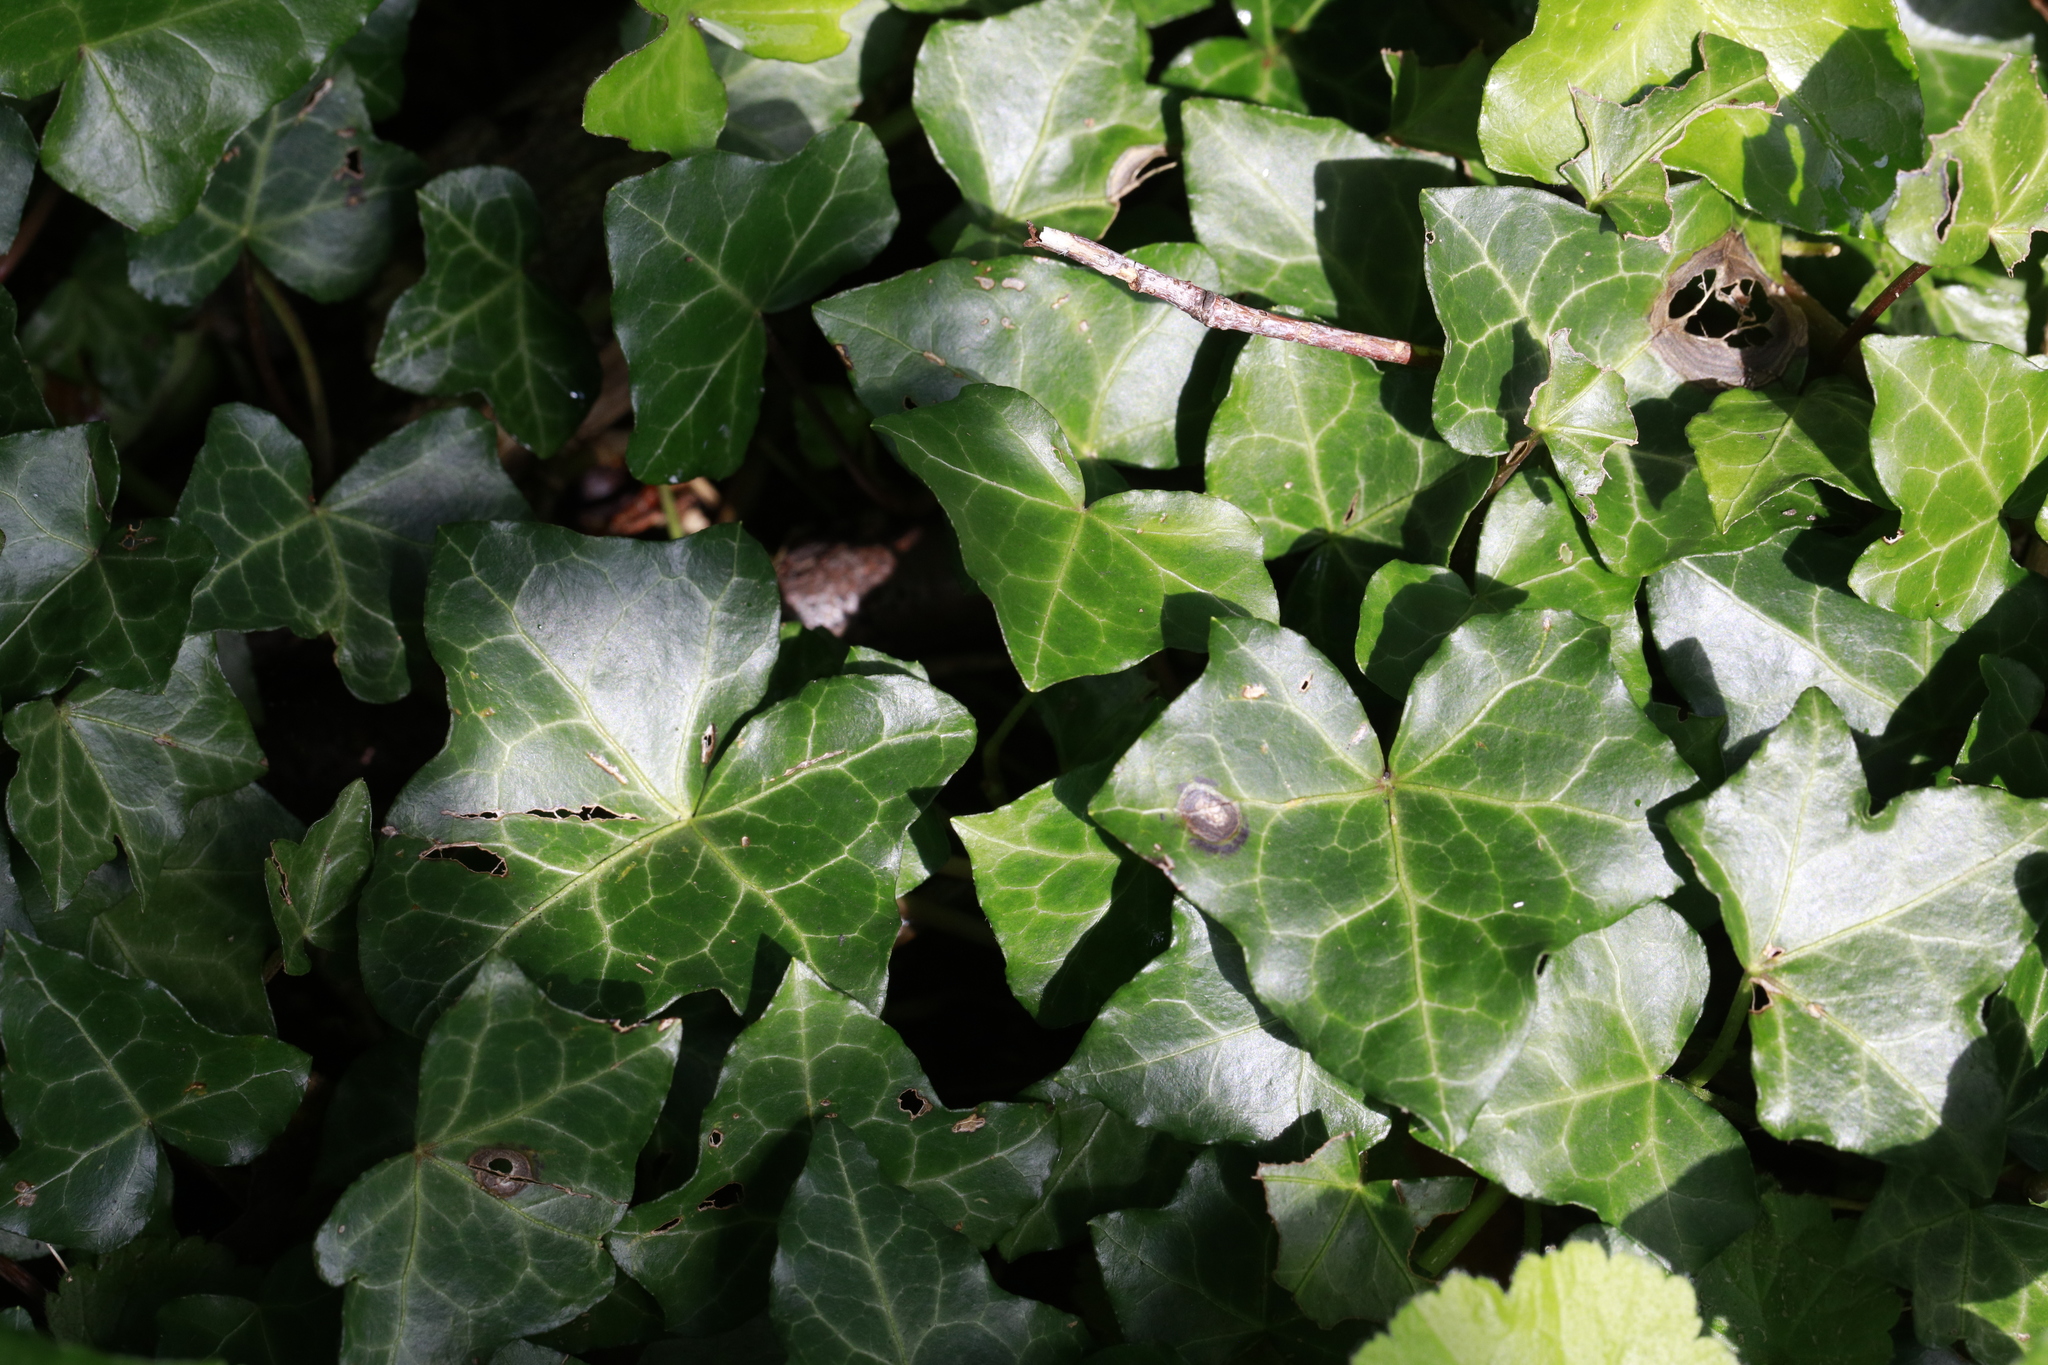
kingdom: Plantae
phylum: Tracheophyta
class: Magnoliopsida
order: Apiales
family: Araliaceae
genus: Hedera
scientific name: Hedera helix
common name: Ivy
